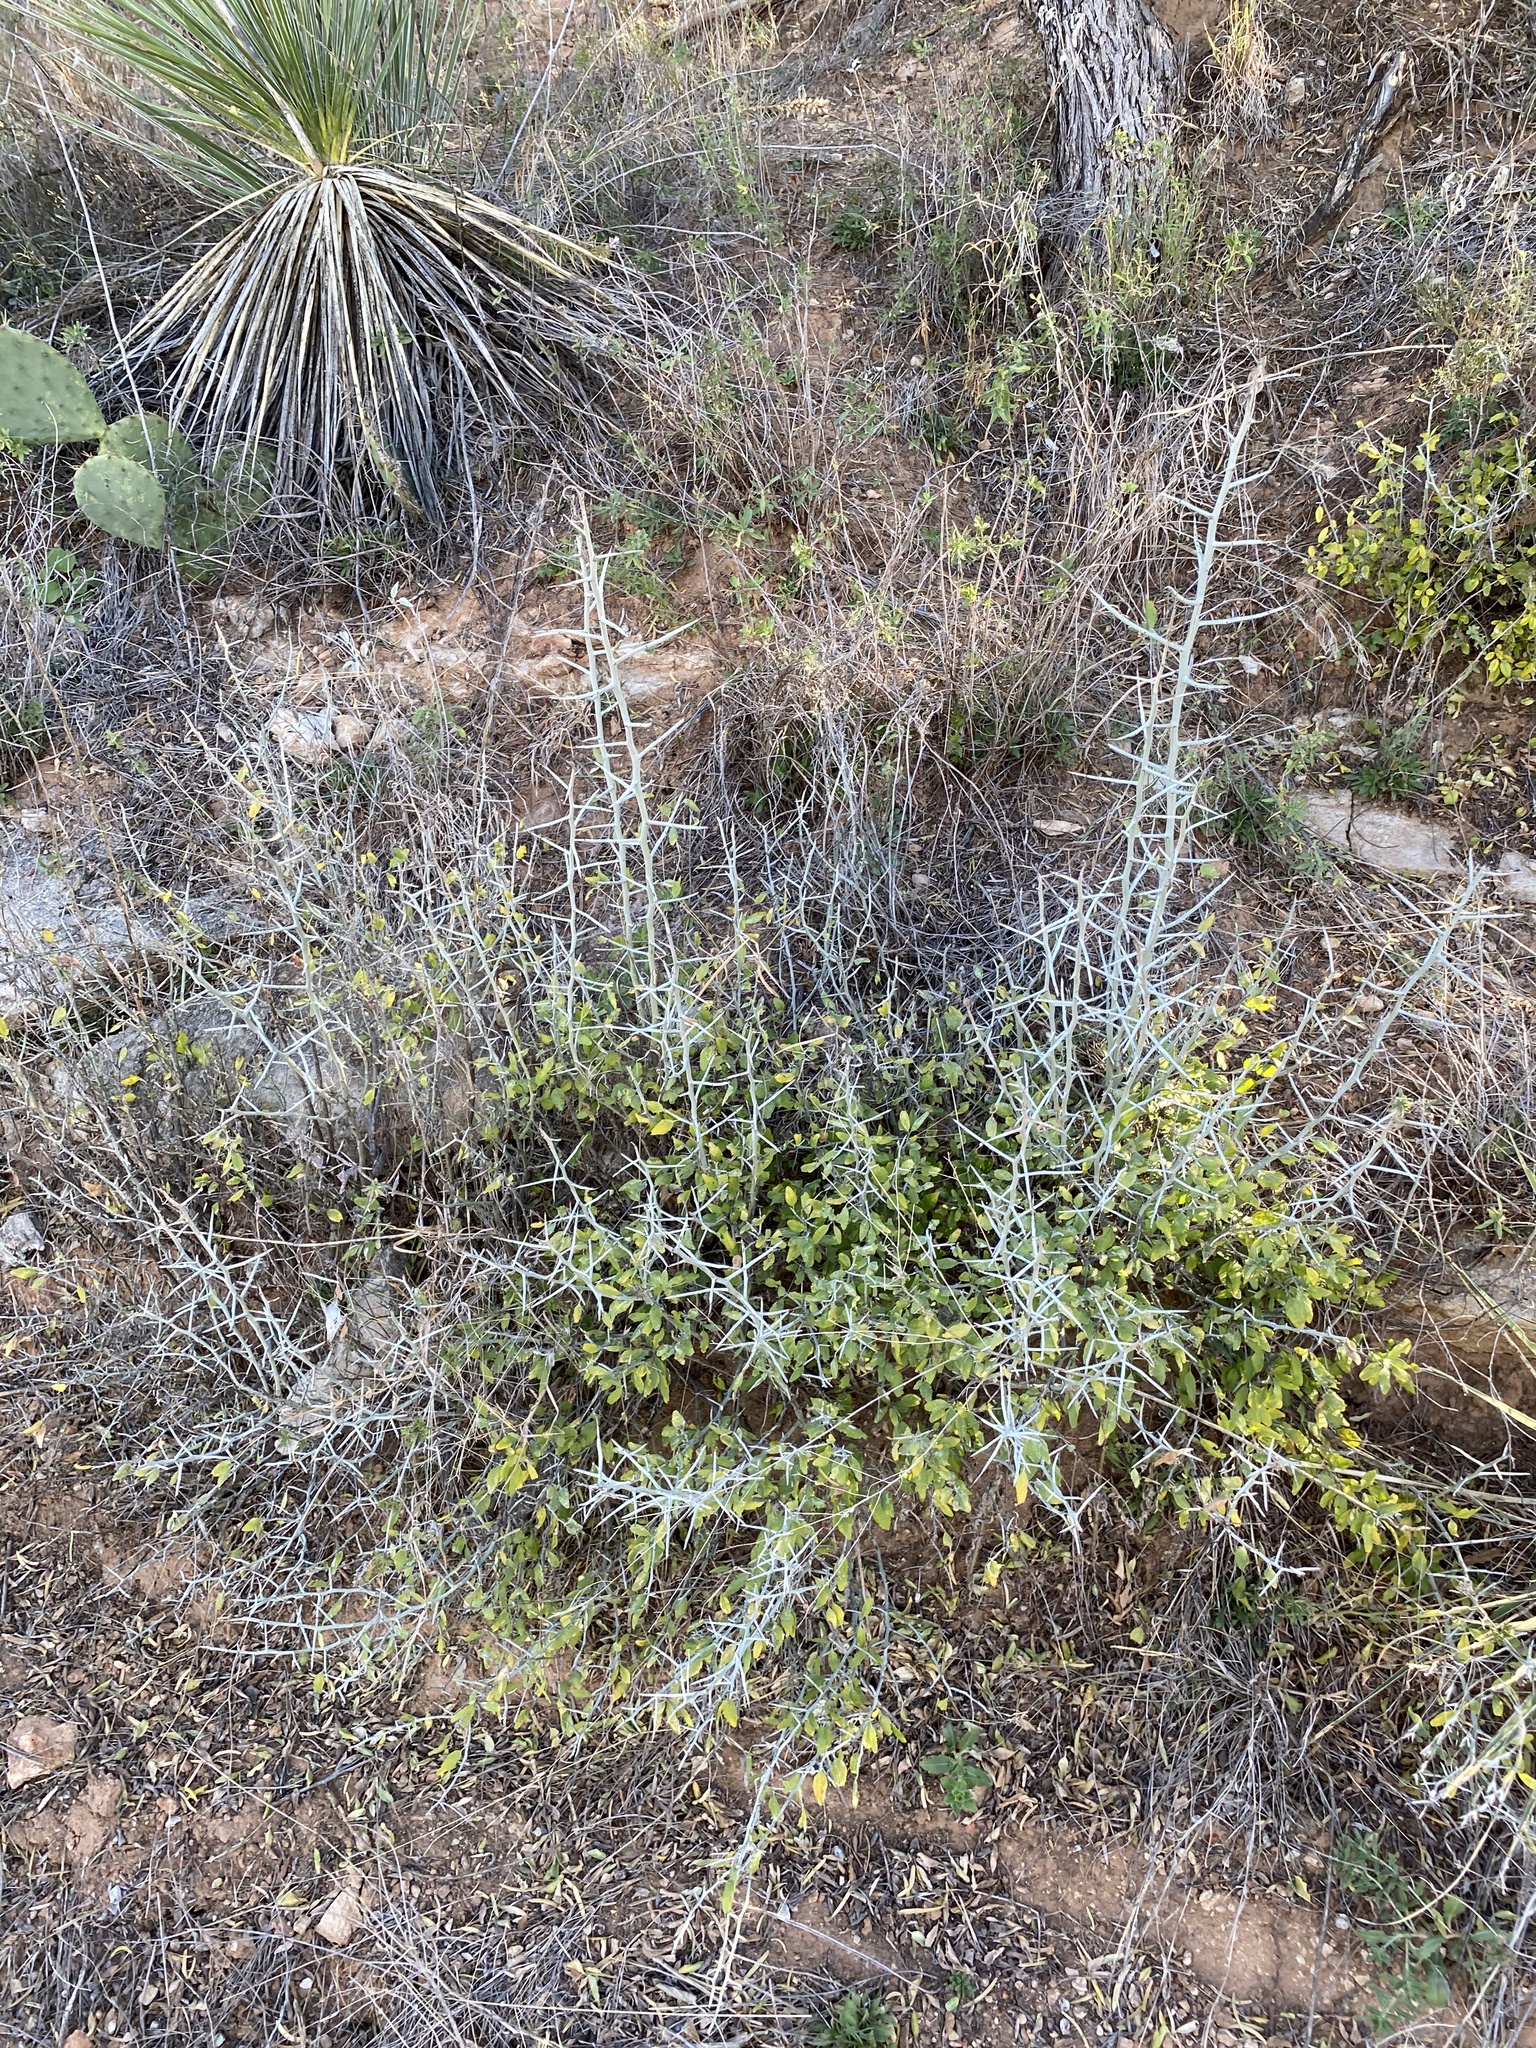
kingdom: Plantae
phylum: Tracheophyta
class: Magnoliopsida
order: Rosales
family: Rhamnaceae
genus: Sarcomphalus
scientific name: Sarcomphalus obtusifolius
